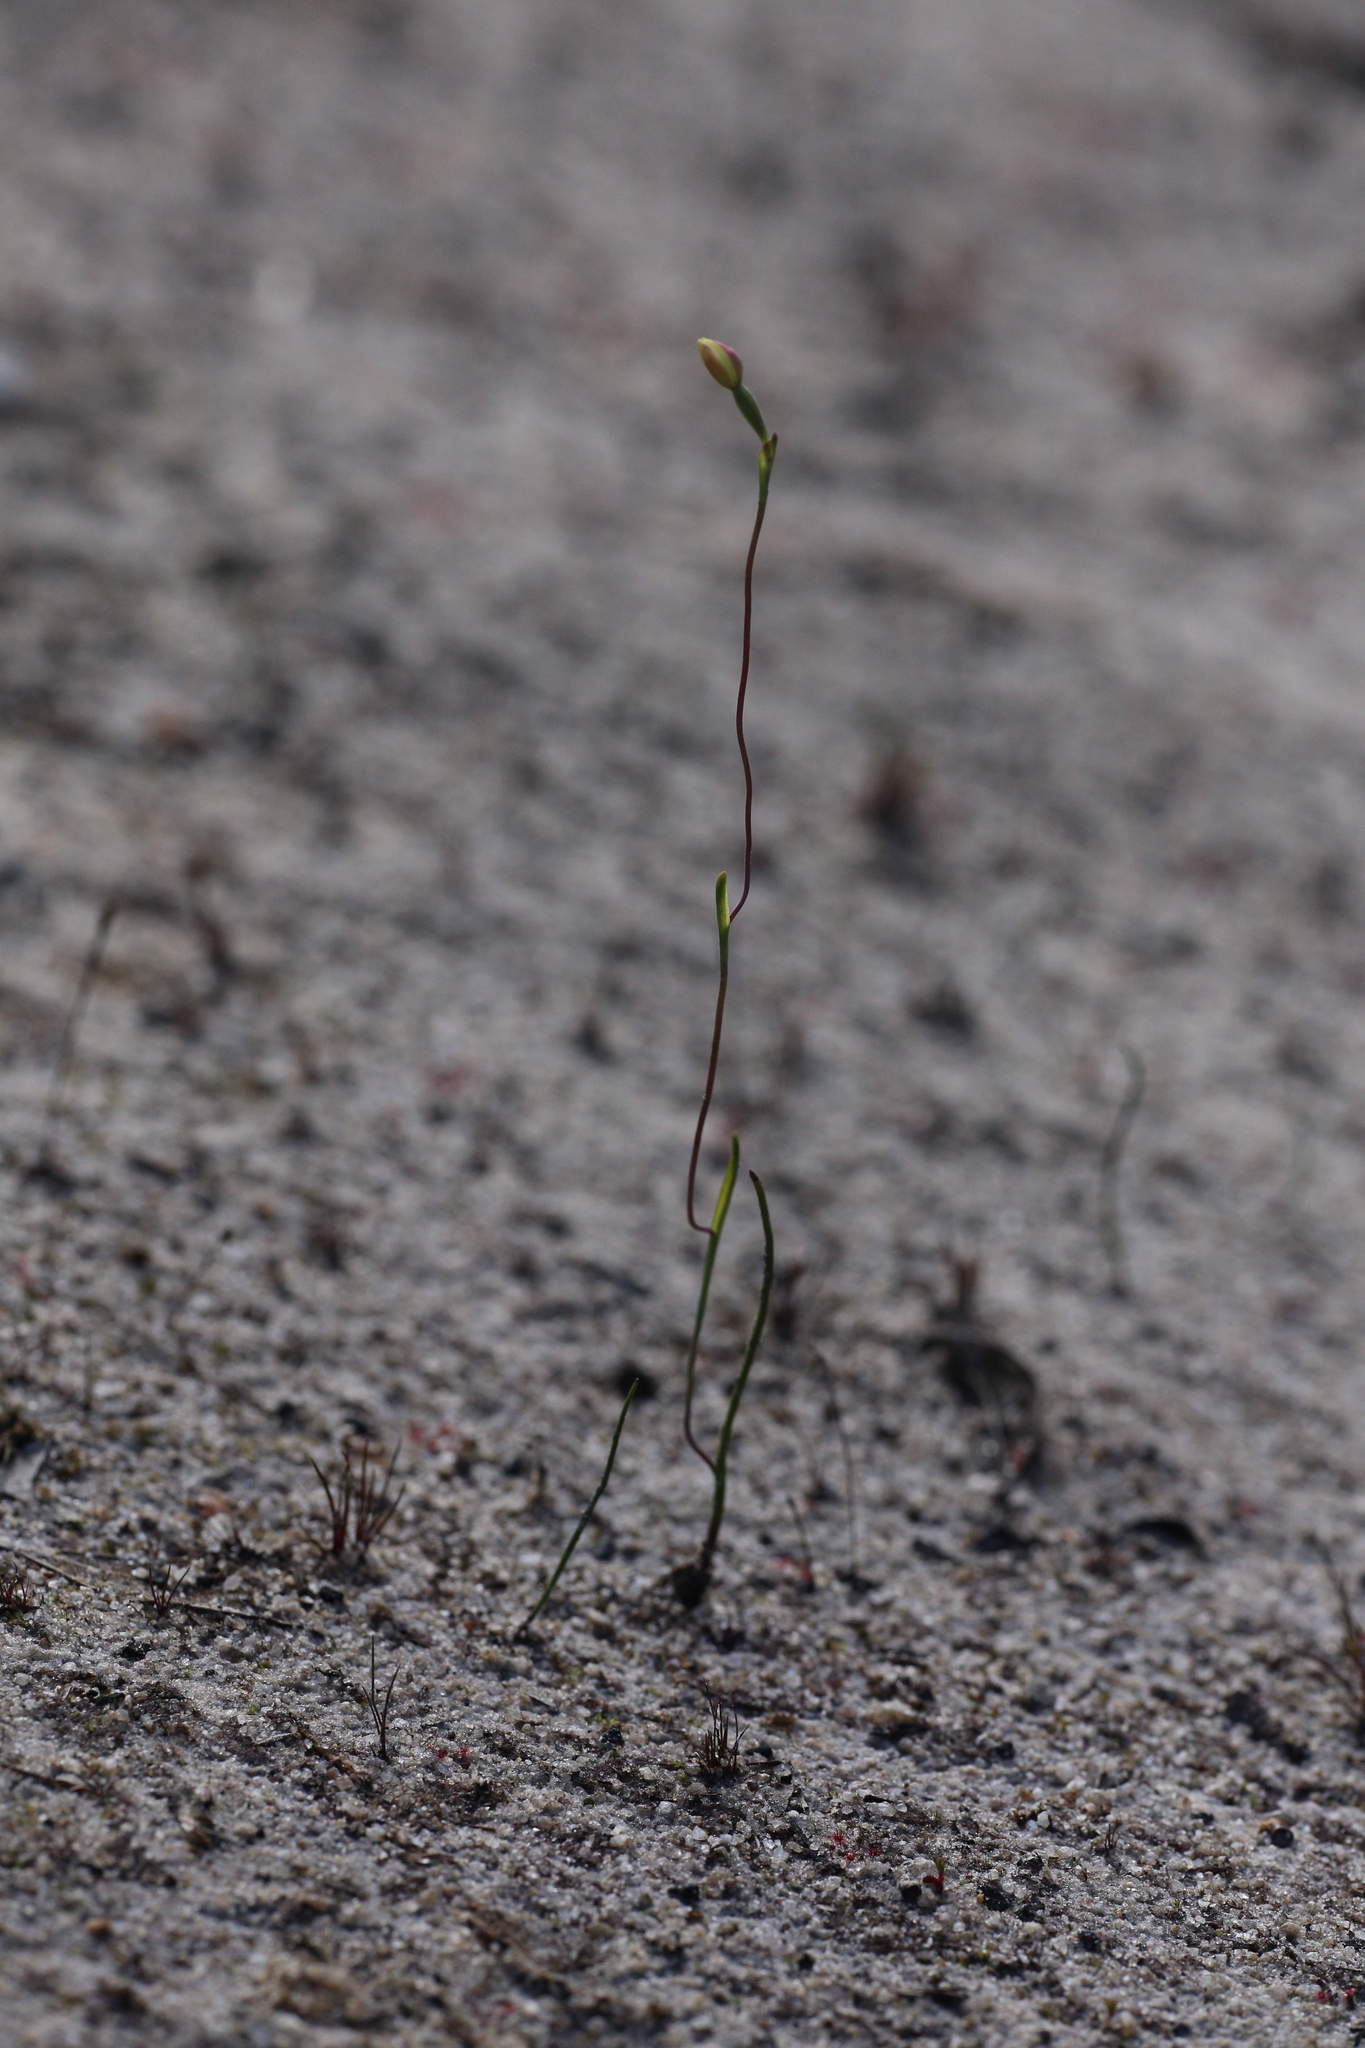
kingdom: Plantae
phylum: Tracheophyta
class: Liliopsida
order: Asparagales
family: Orchidaceae
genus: Thelymitra
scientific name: Thelymitra flexuosa
